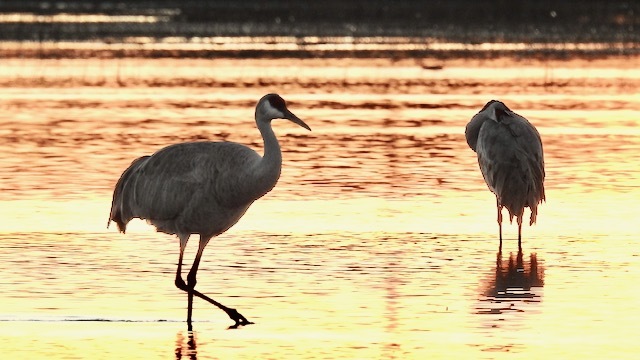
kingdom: Animalia
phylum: Chordata
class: Aves
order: Gruiformes
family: Gruidae
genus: Grus
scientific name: Grus canadensis
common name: Sandhill crane
